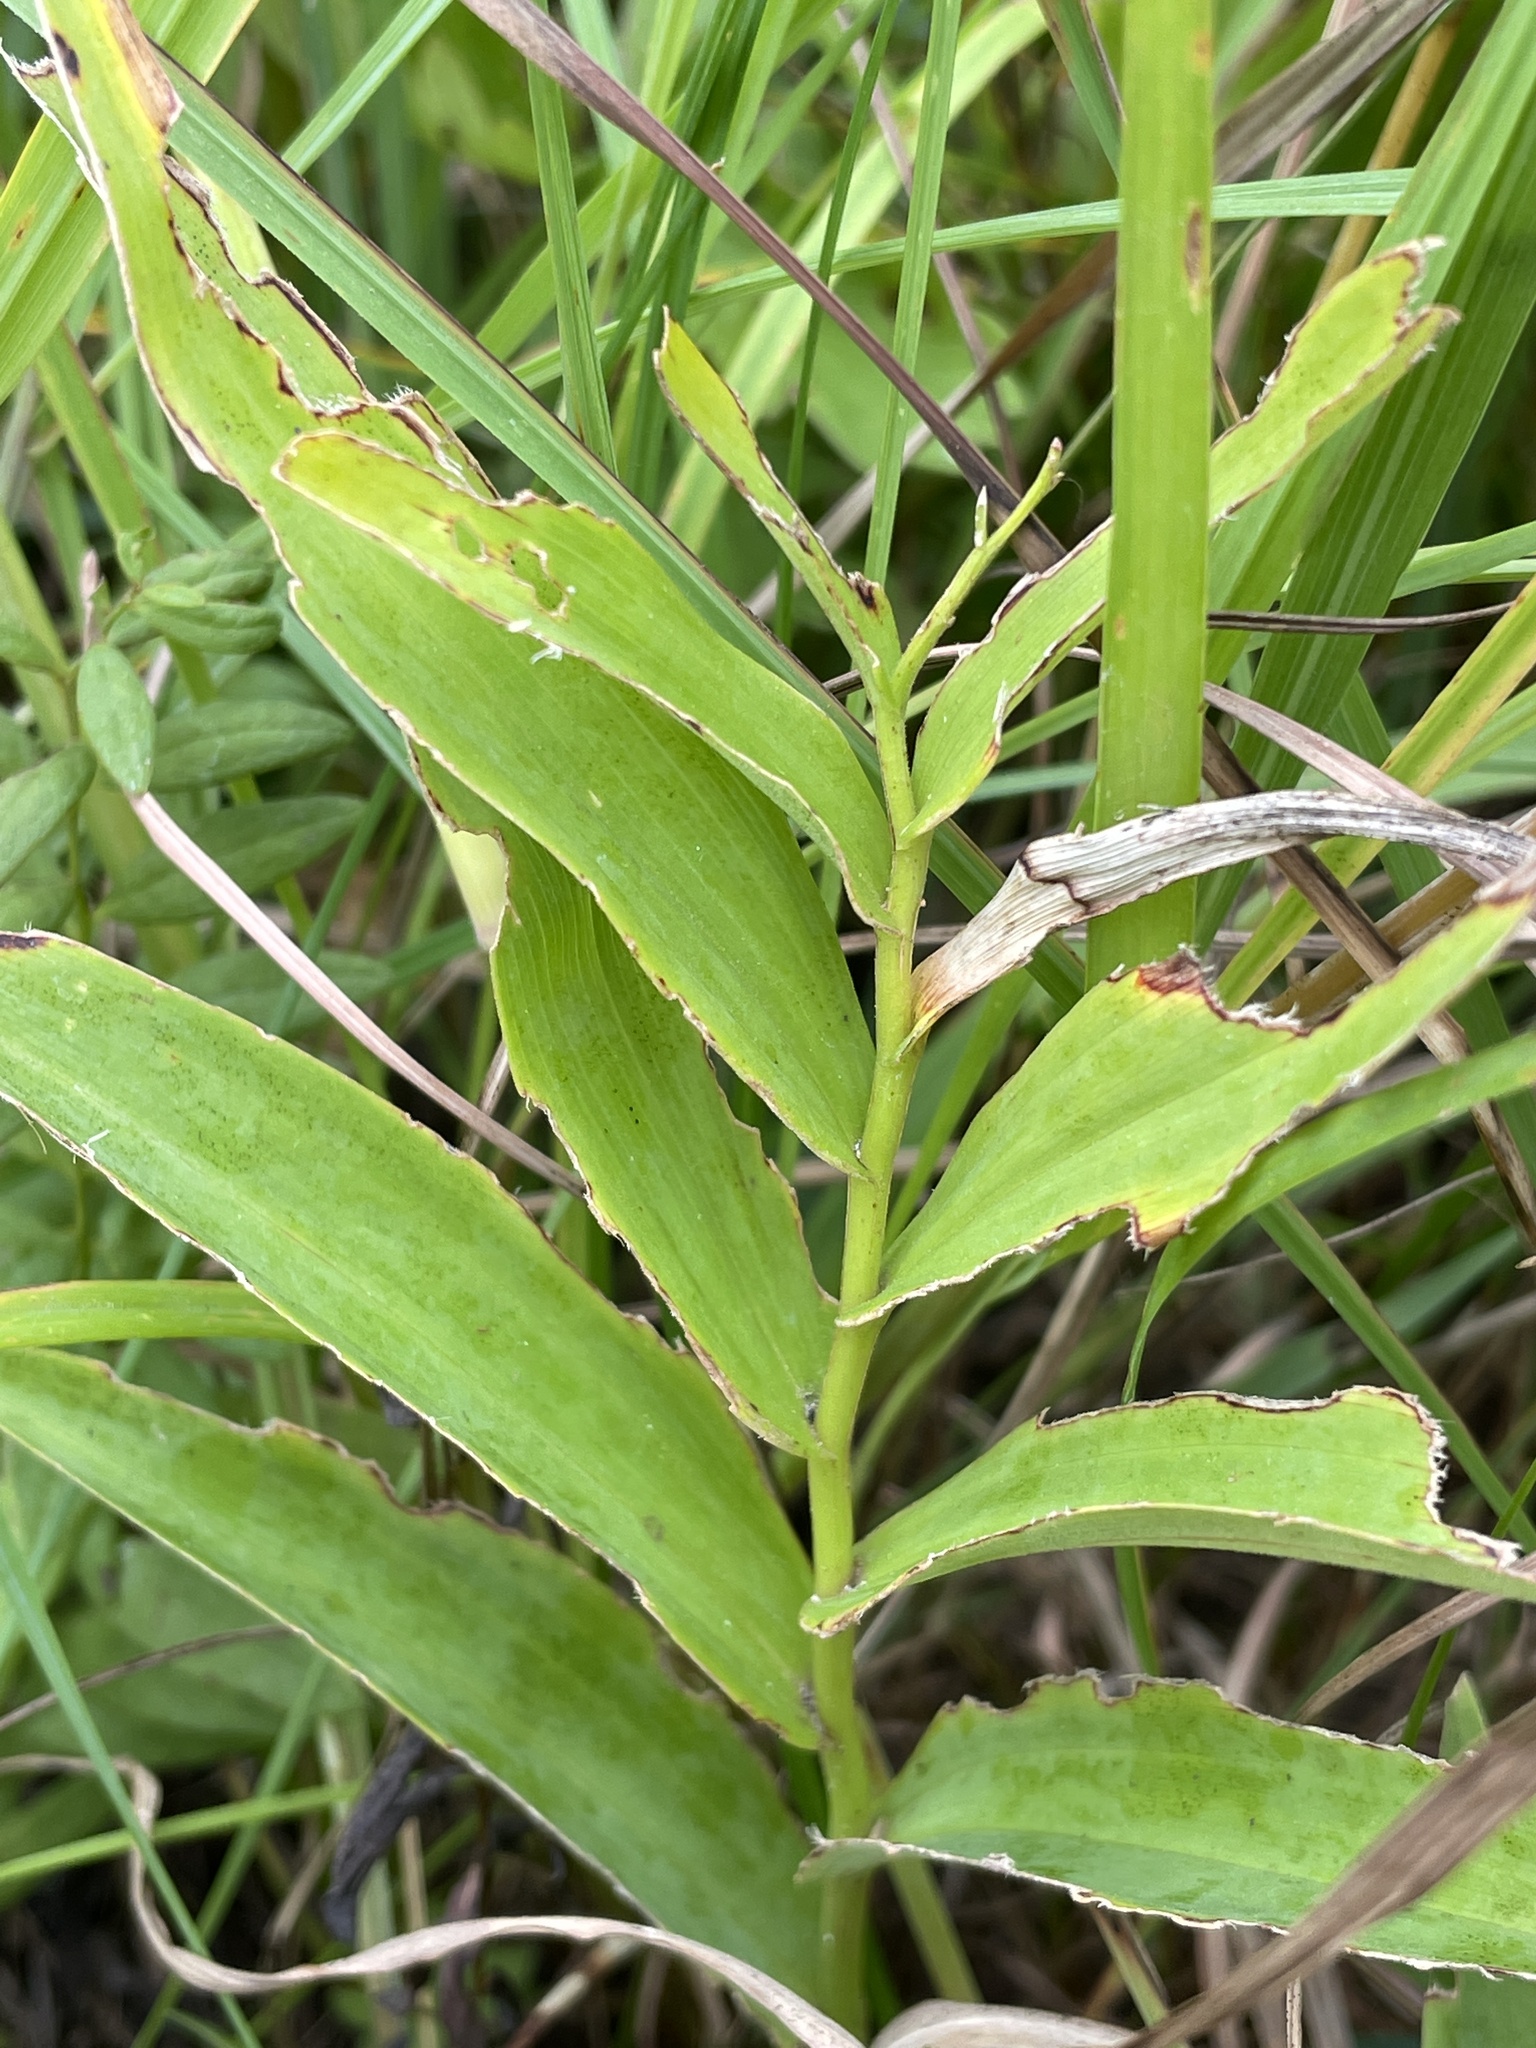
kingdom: Plantae
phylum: Tracheophyta
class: Liliopsida
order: Asparagales
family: Asparagaceae
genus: Maianthemum
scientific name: Maianthemum stellatum
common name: Little false solomon's seal
